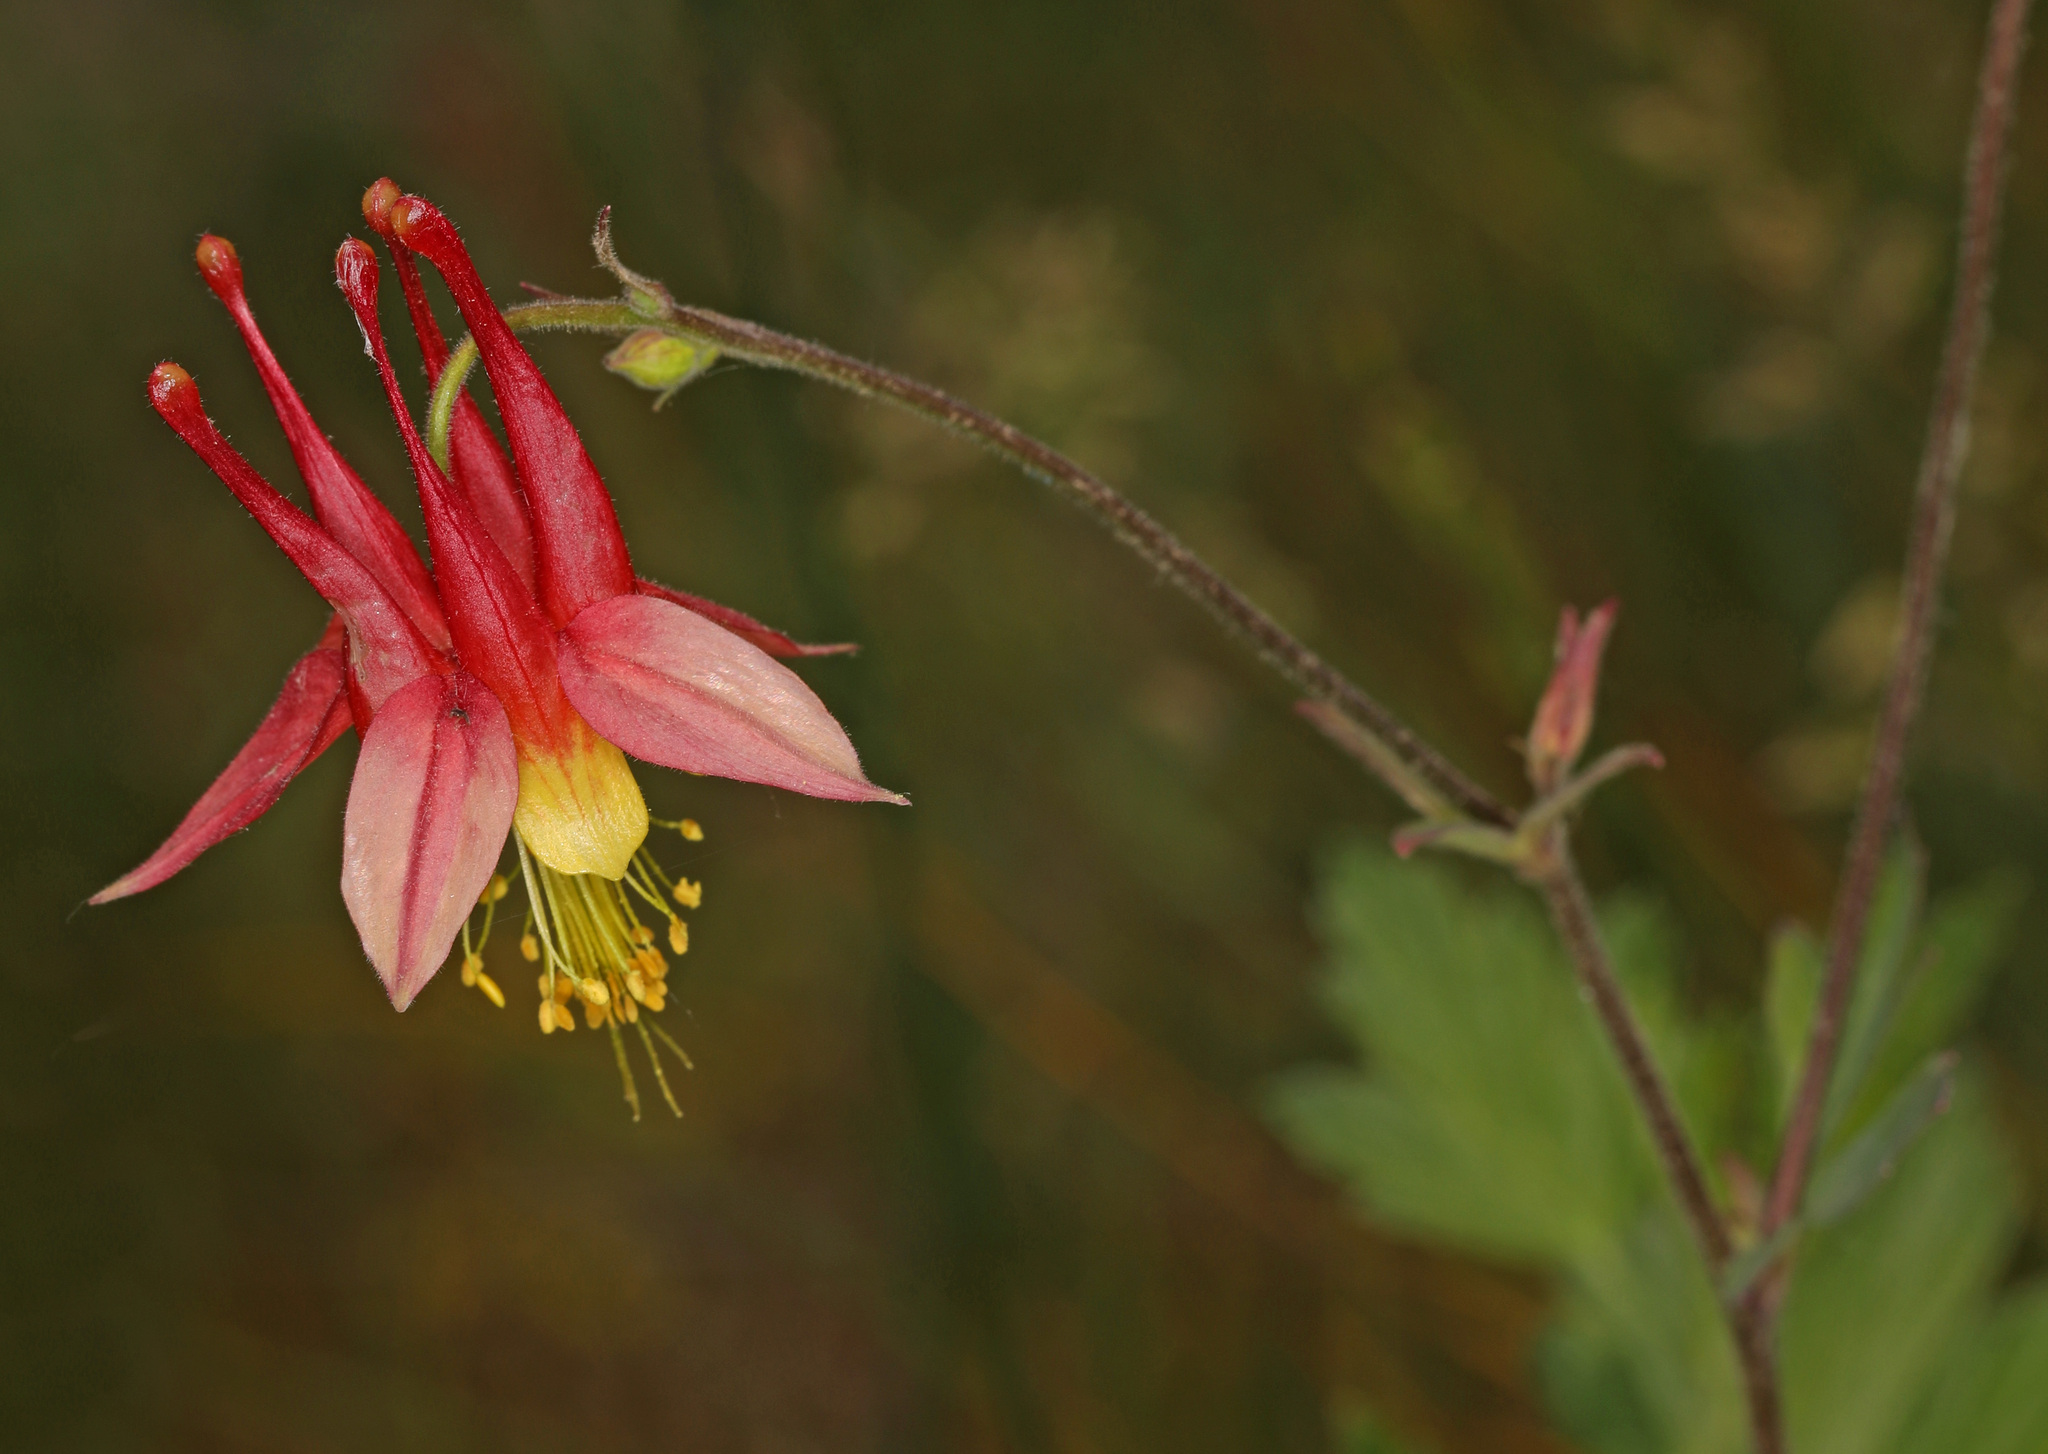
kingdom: Plantae
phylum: Tracheophyta
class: Magnoliopsida
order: Ranunculales
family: Ranunculaceae
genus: Aquilegia
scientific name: Aquilegia canadensis
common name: American columbine
